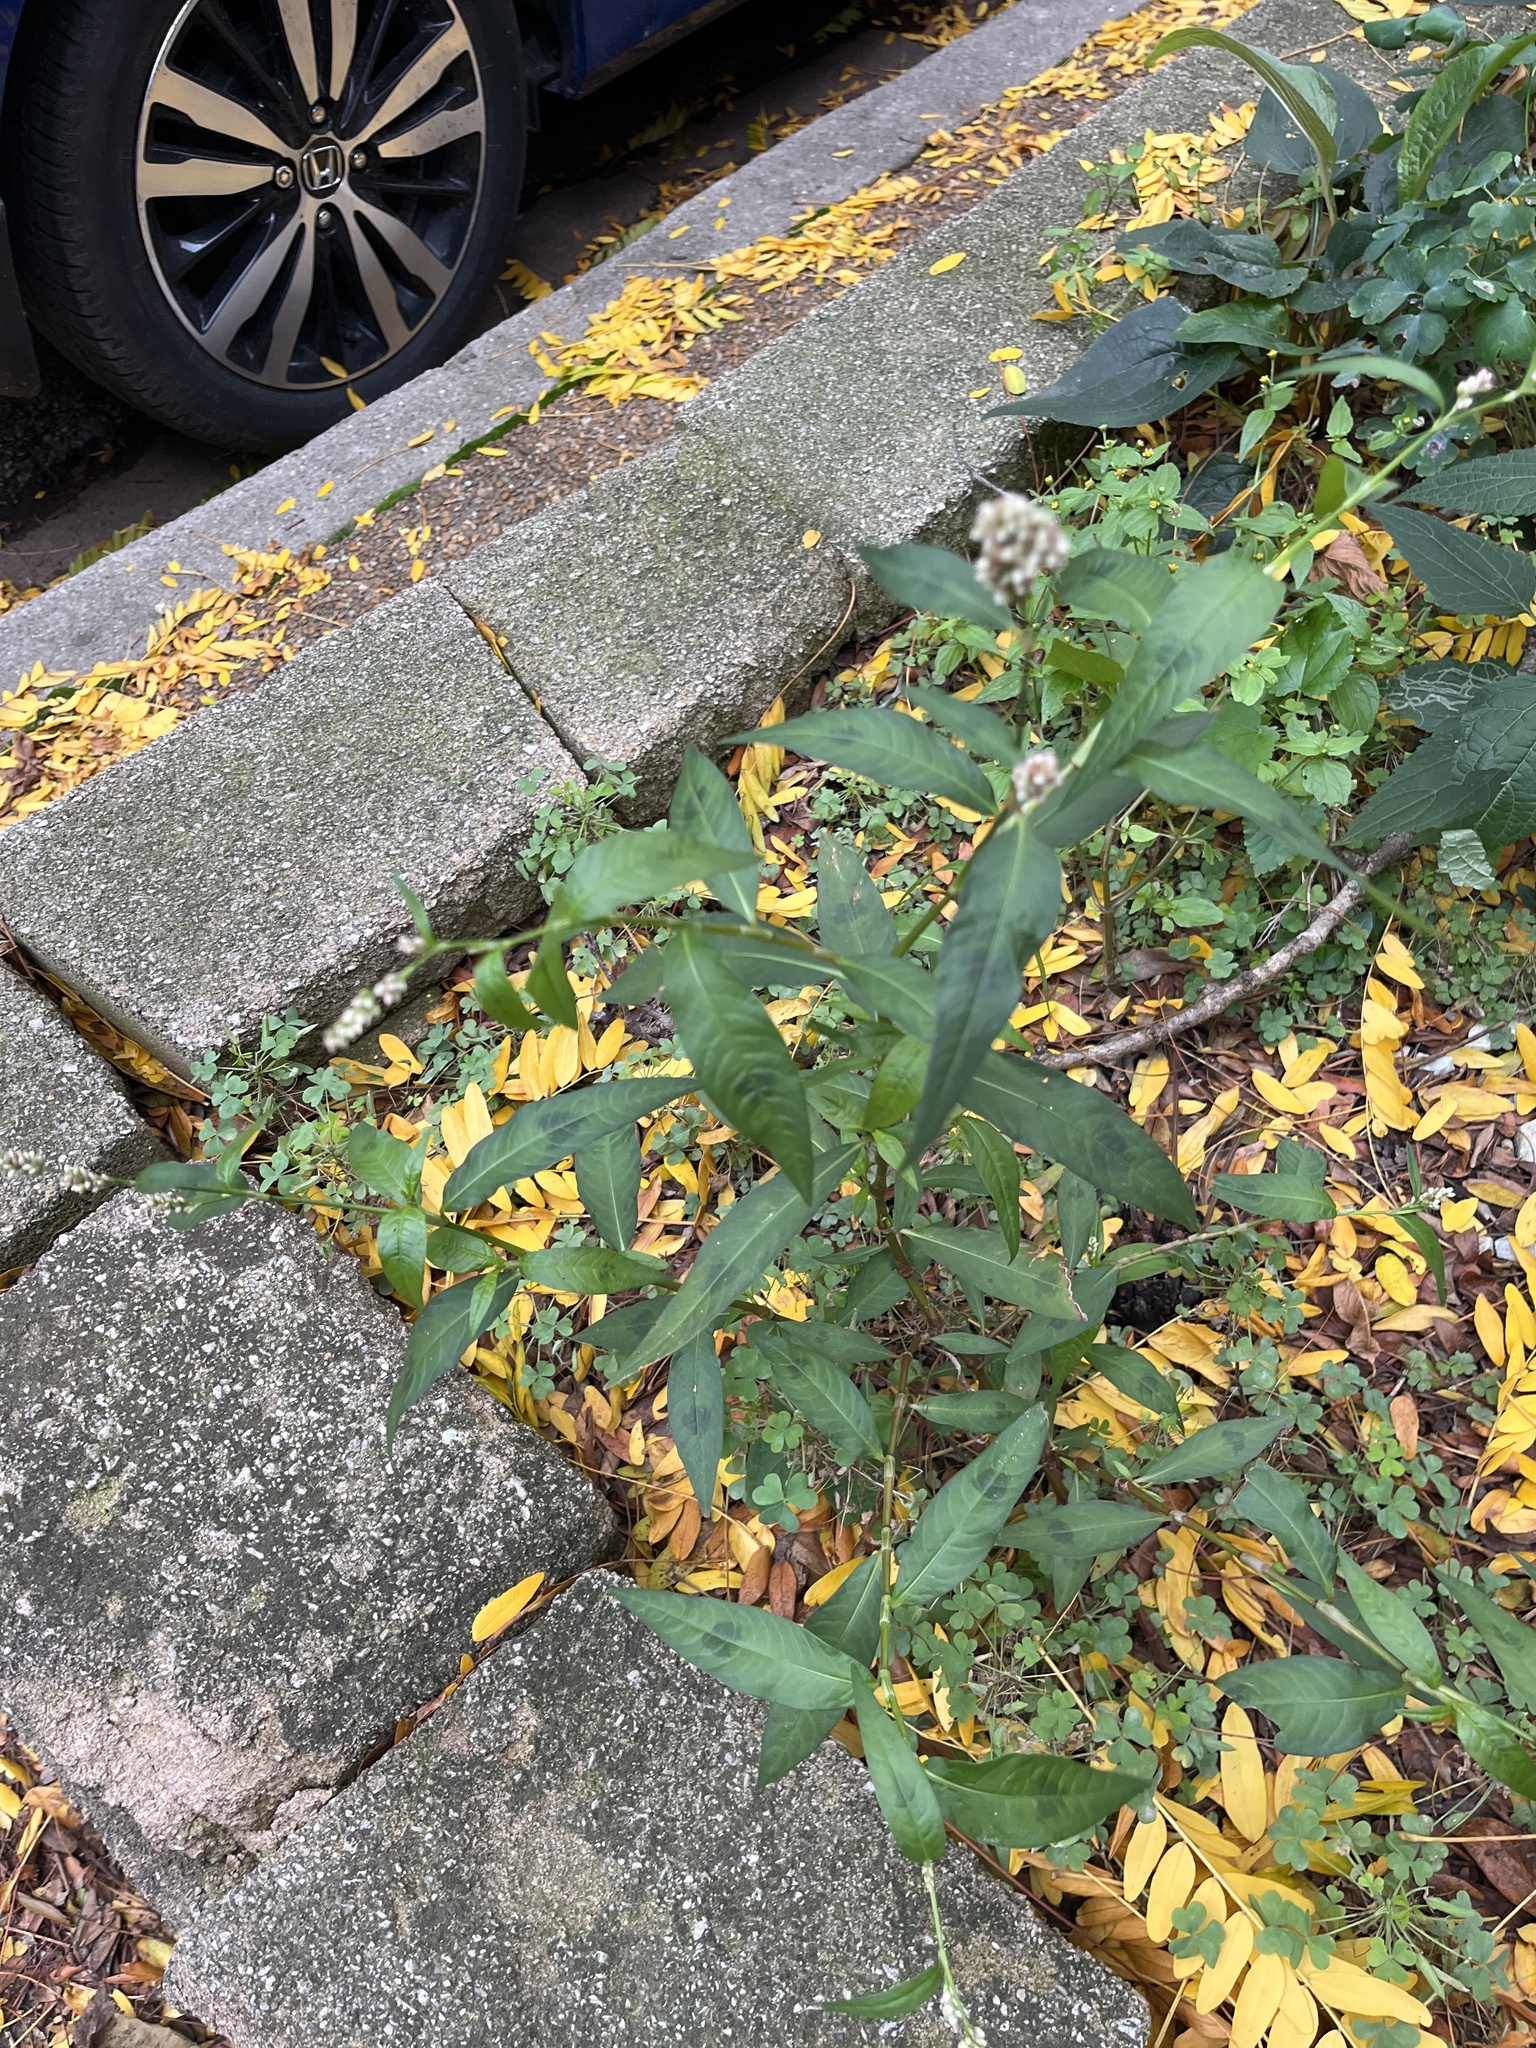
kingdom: Plantae
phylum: Tracheophyta
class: Magnoliopsida
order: Caryophyllales
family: Polygonaceae
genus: Persicaria
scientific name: Persicaria maculosa
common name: Redshank
